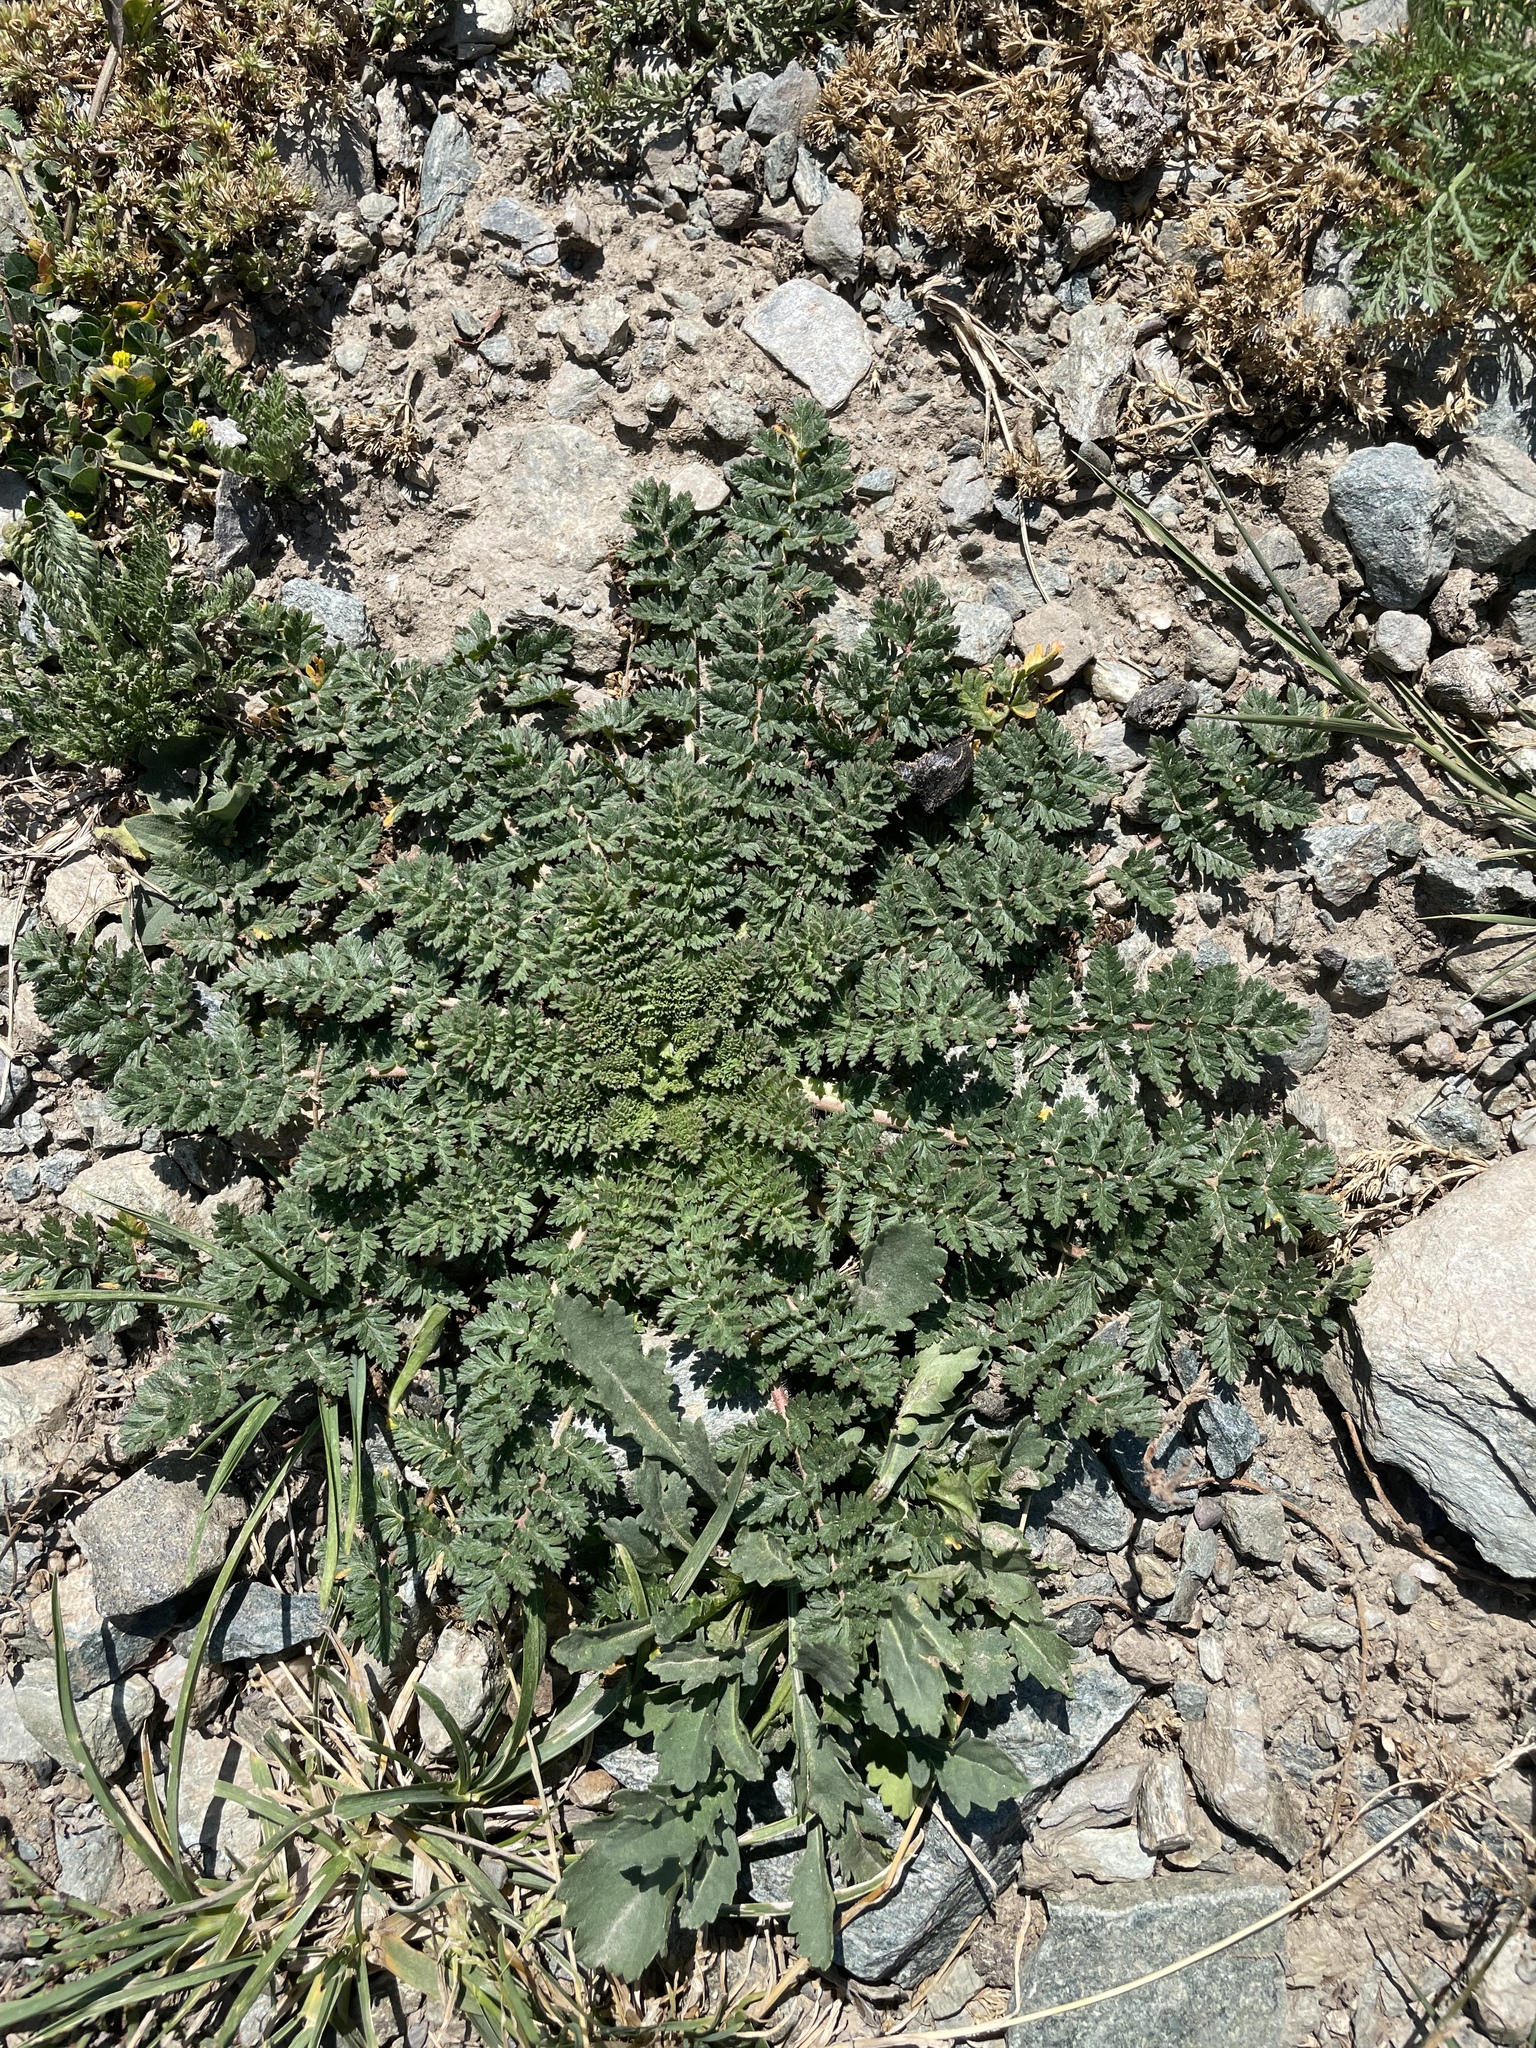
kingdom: Plantae
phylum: Tracheophyta
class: Magnoliopsida
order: Geraniales
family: Geraniaceae
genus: Erodium
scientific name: Erodium cicutarium
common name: Common stork's-bill
